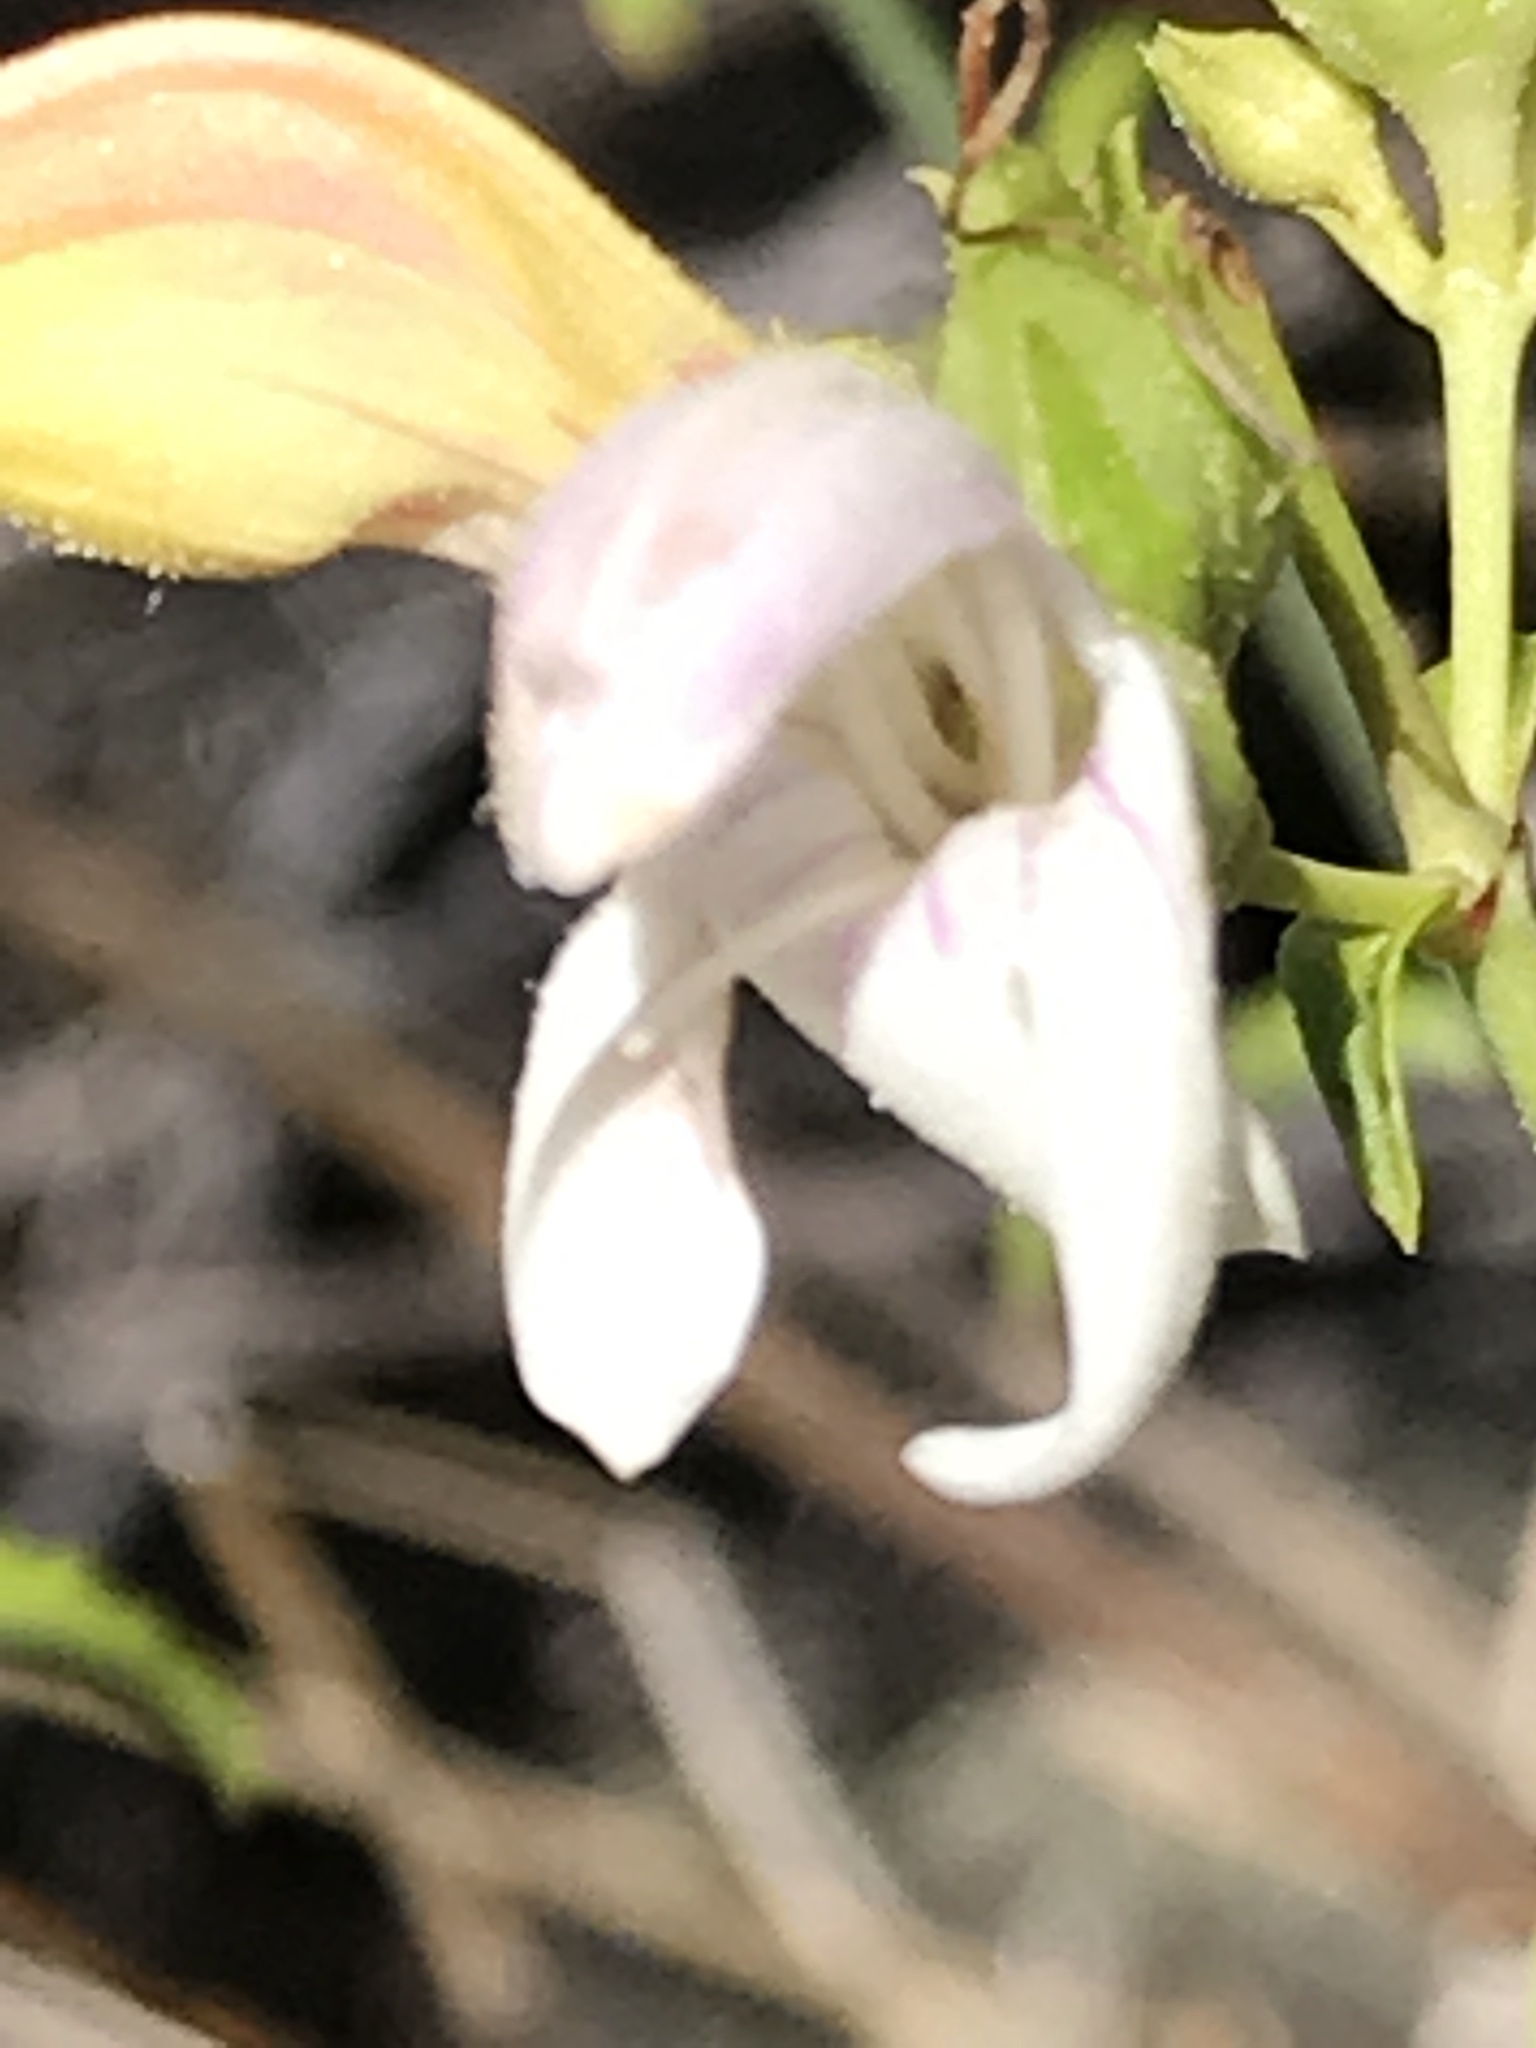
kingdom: Plantae
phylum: Tracheophyta
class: Magnoliopsida
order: Lamiales
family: Plantaginaceae
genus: Keckiella
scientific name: Keckiella breviflora
